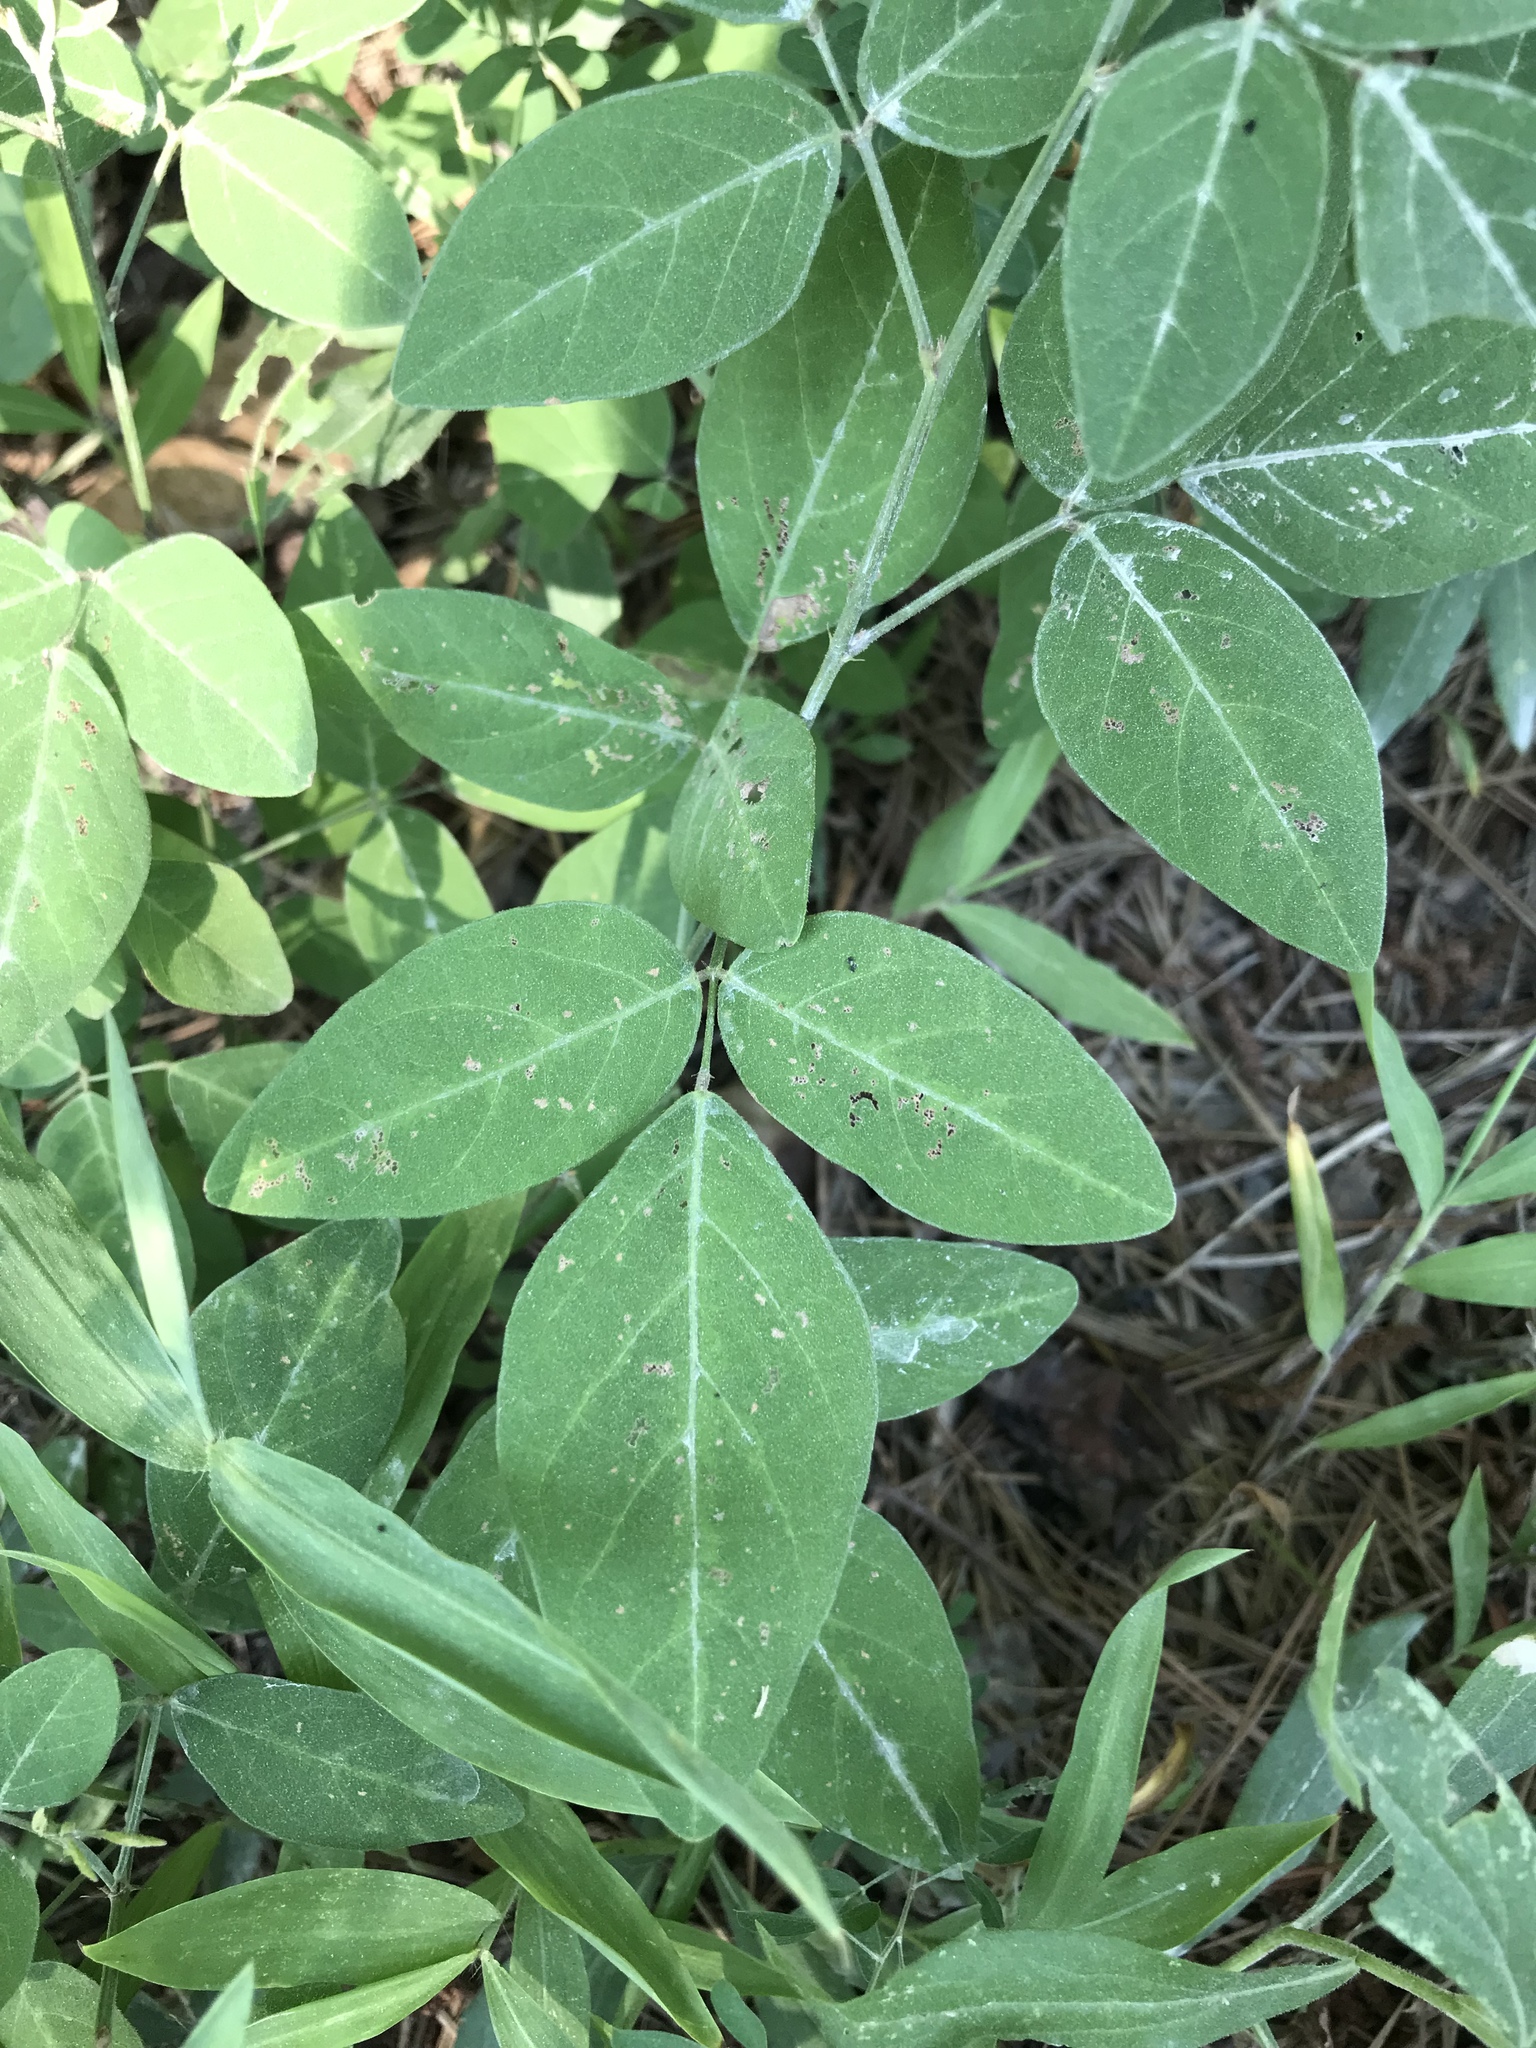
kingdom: Plantae
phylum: Tracheophyta
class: Magnoliopsida
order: Fabales
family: Fabaceae
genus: Desmodium
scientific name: Desmodium perplexum
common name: Perplexed tick trefoil
